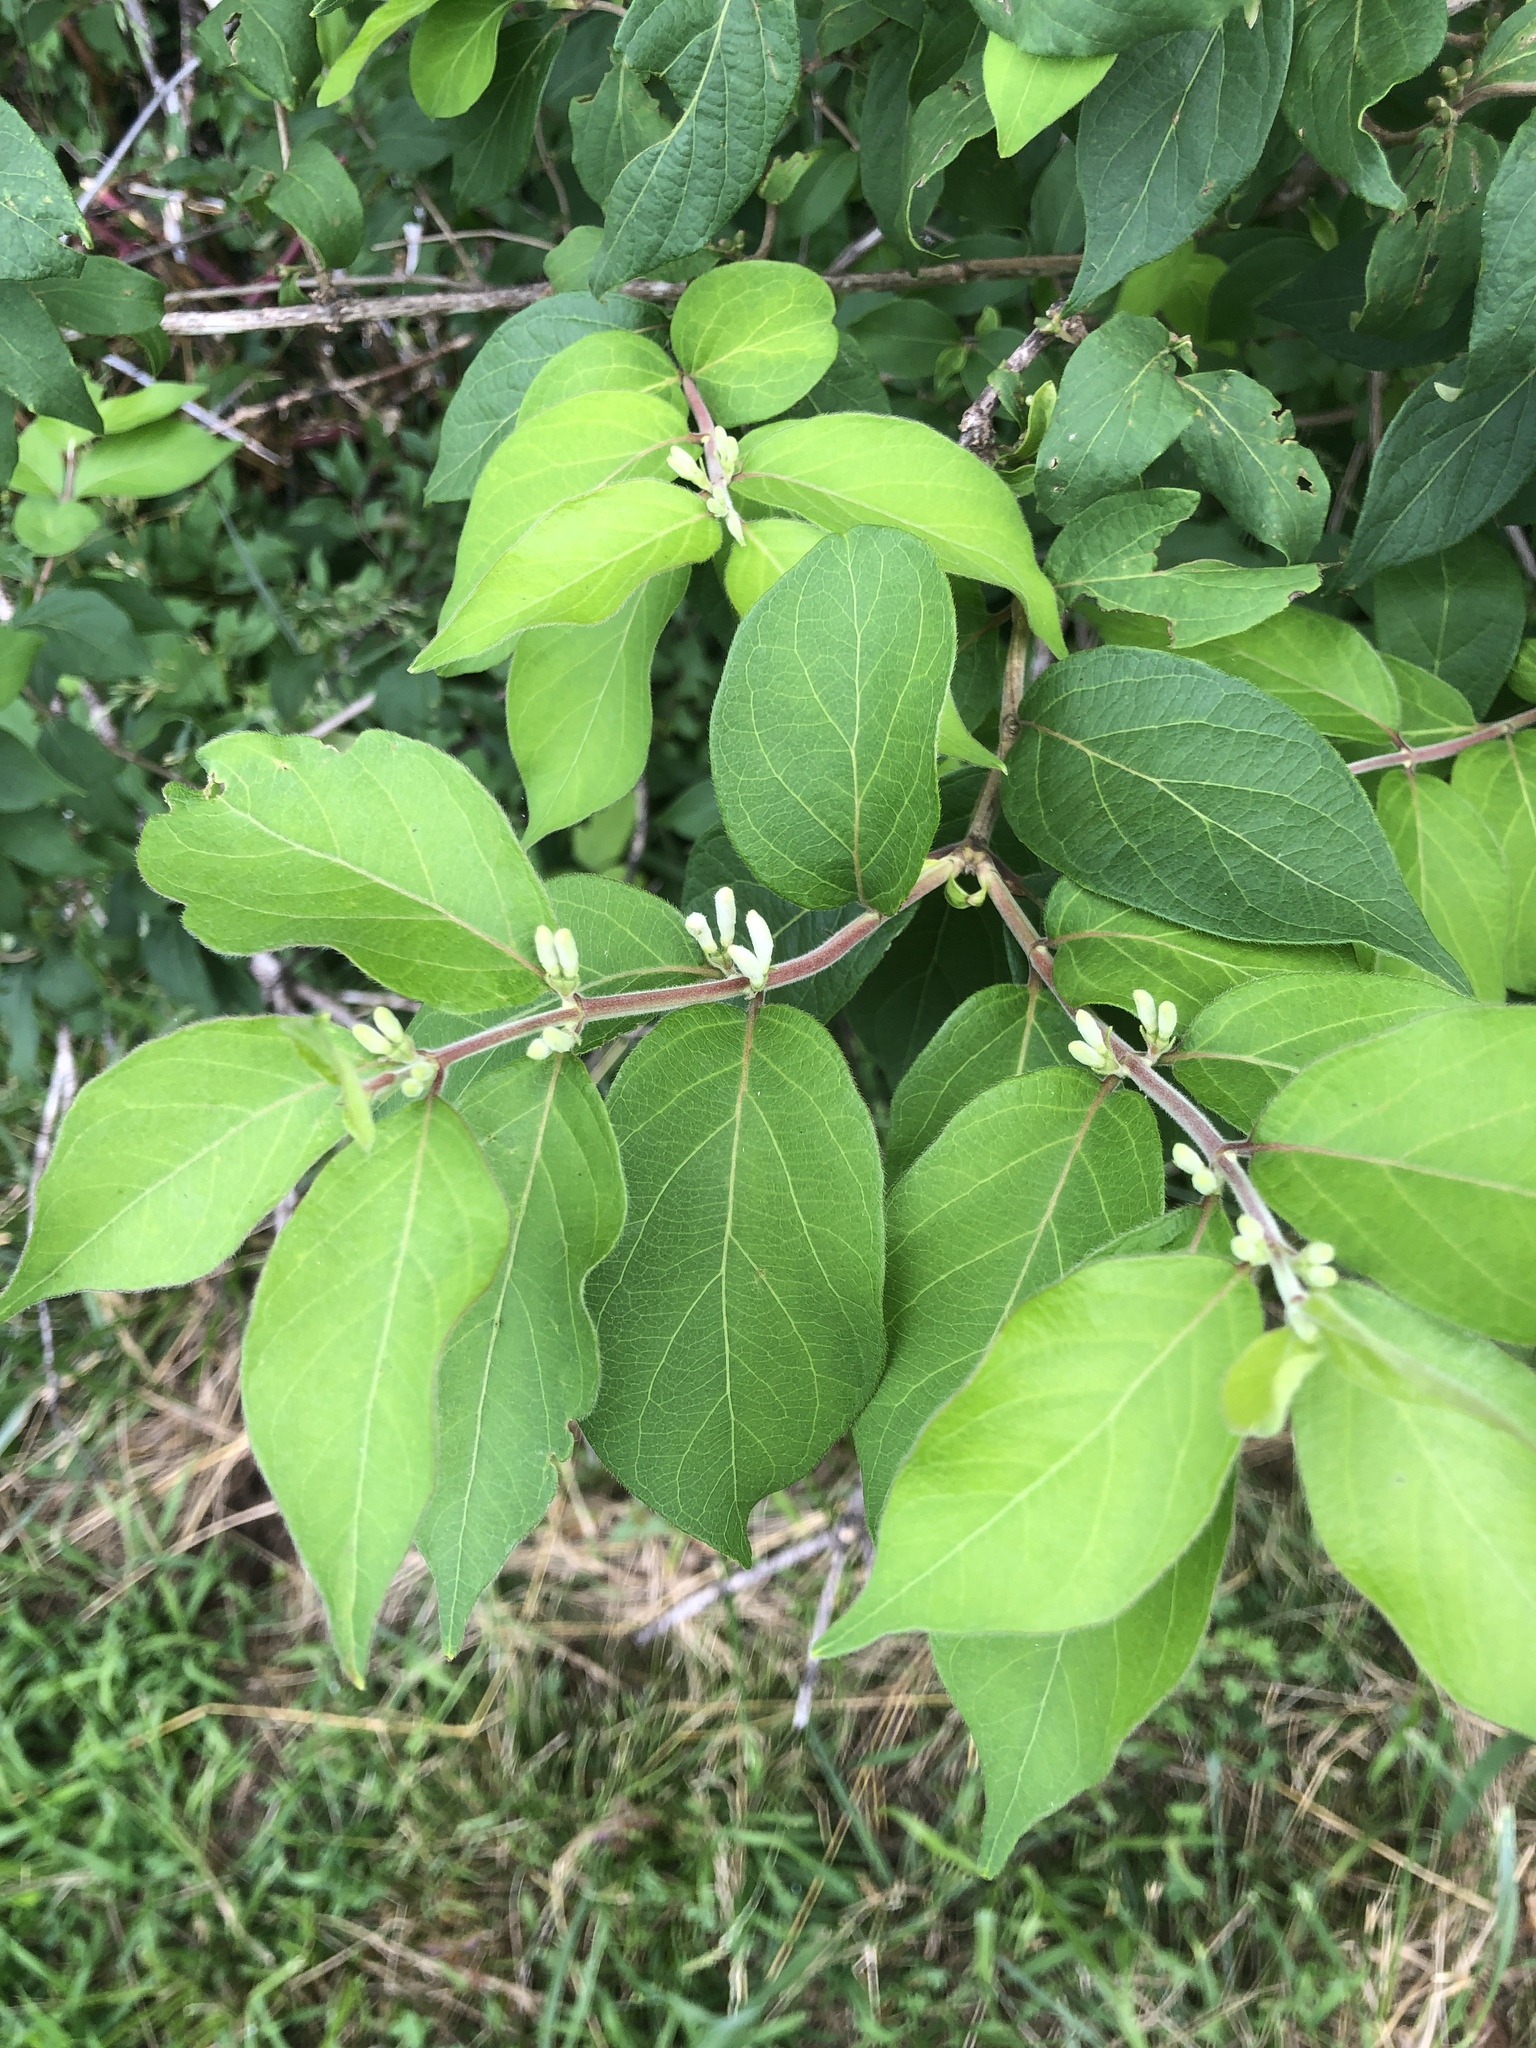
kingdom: Plantae
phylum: Tracheophyta
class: Magnoliopsida
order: Dipsacales
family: Caprifoliaceae
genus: Lonicera
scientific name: Lonicera maackii
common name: Amur honeysuckle
